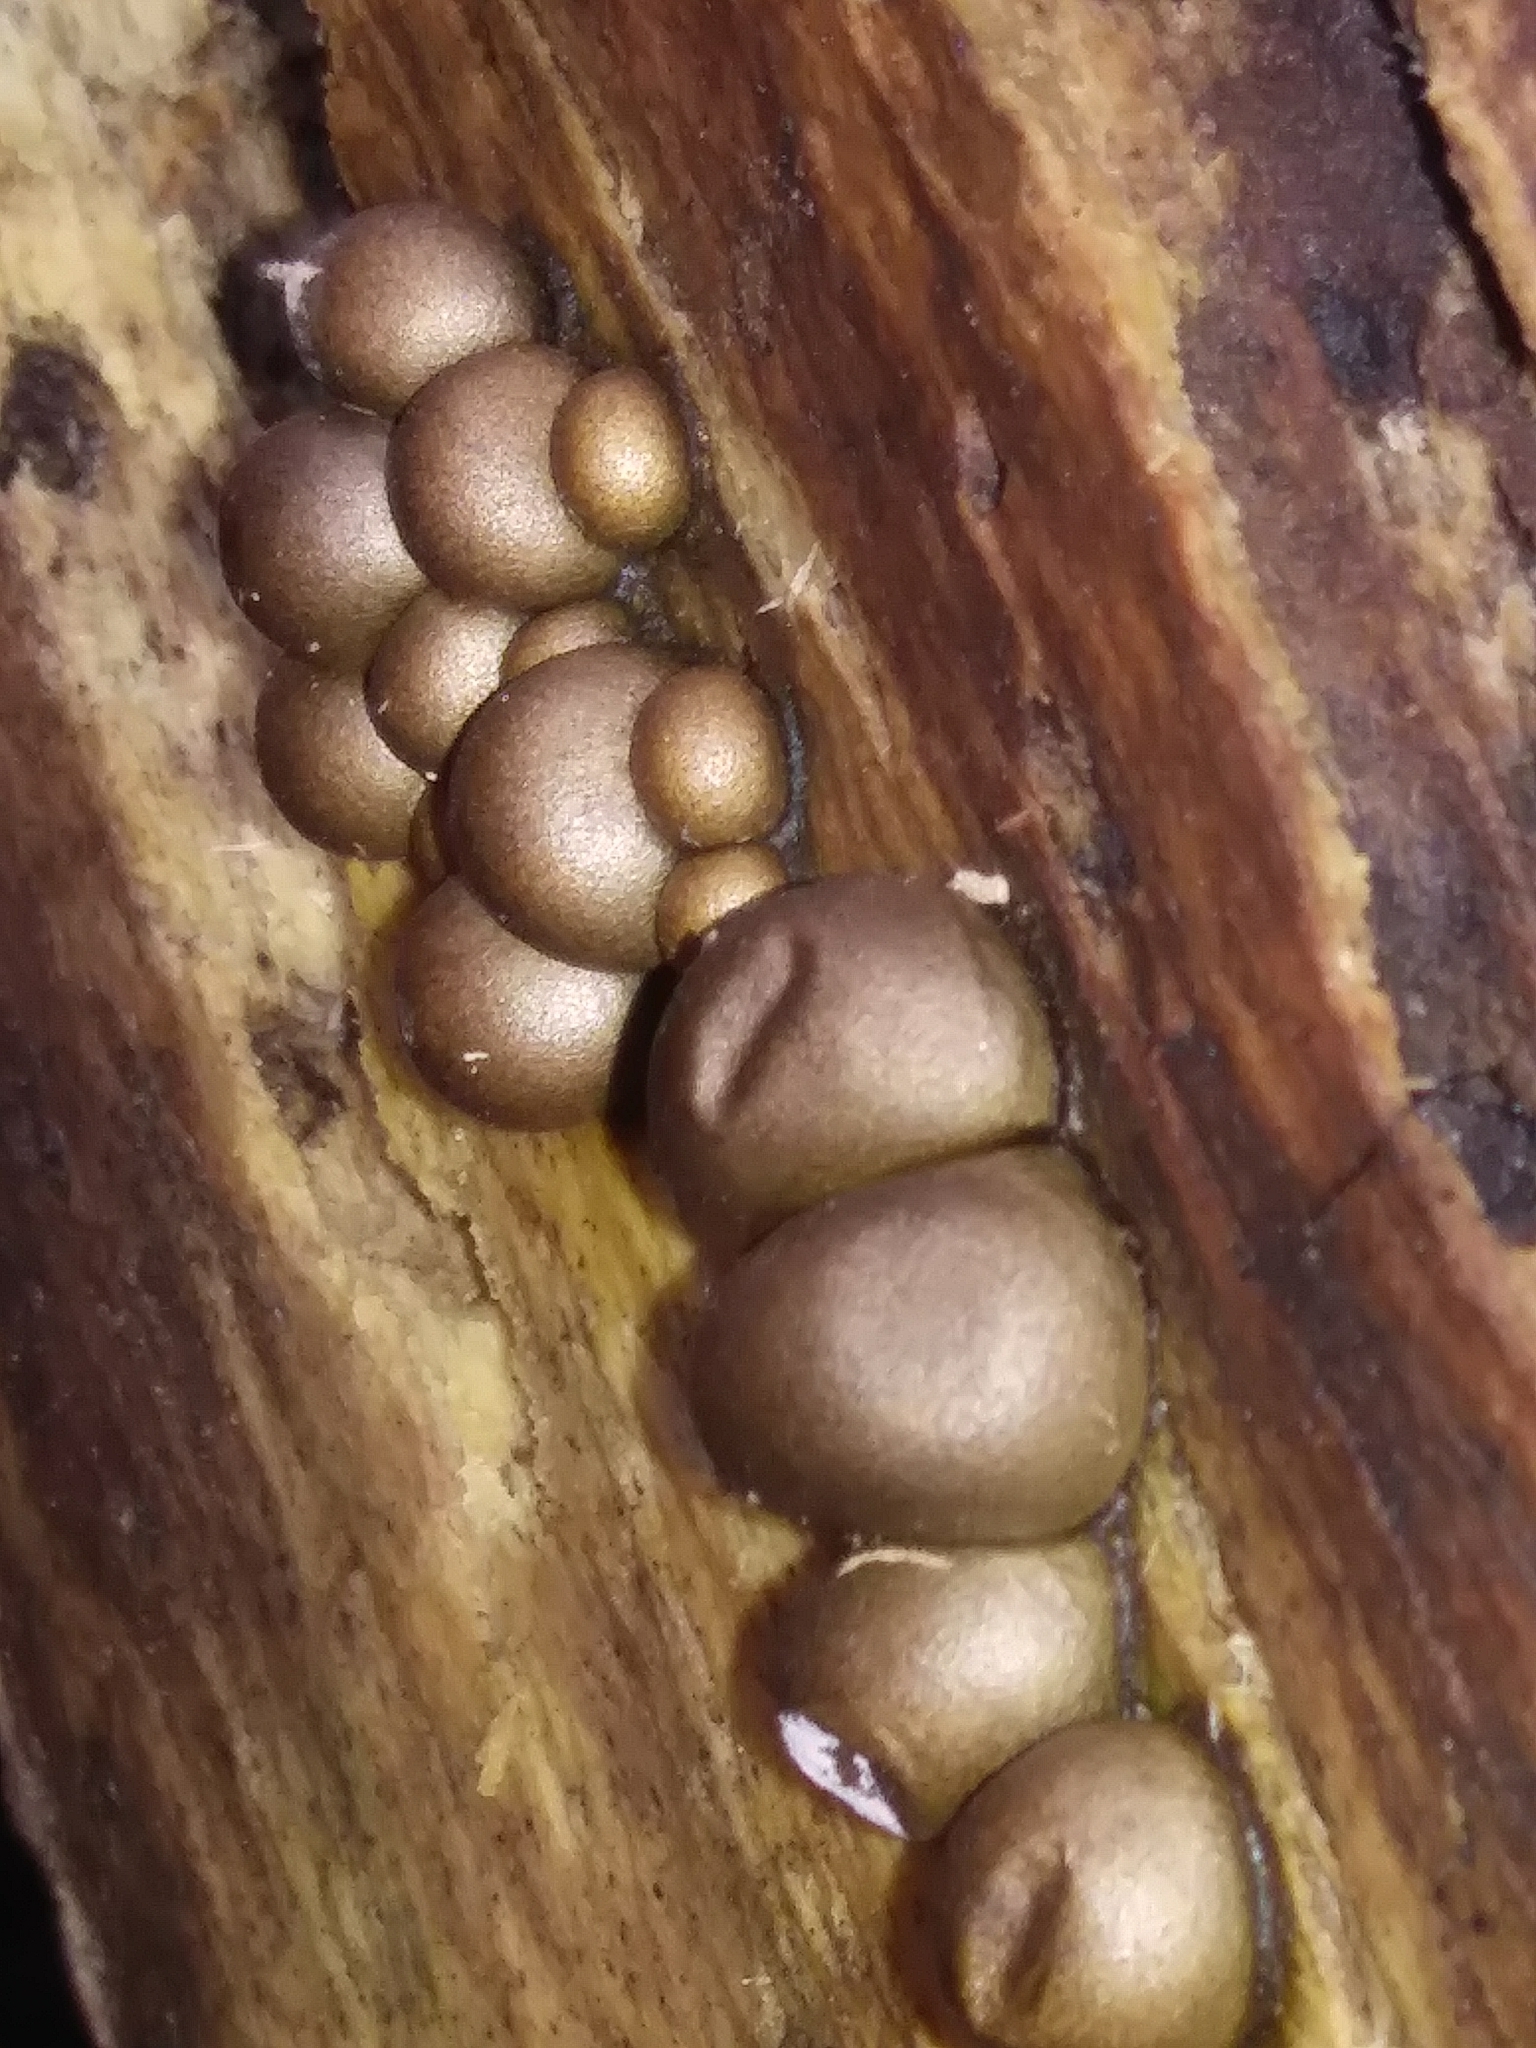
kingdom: Protozoa
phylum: Mycetozoa
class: Myxomycetes
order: Cribrariales
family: Tubiferaceae
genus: Lycogala
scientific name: Lycogala epidendrum
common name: Wolf's milk
